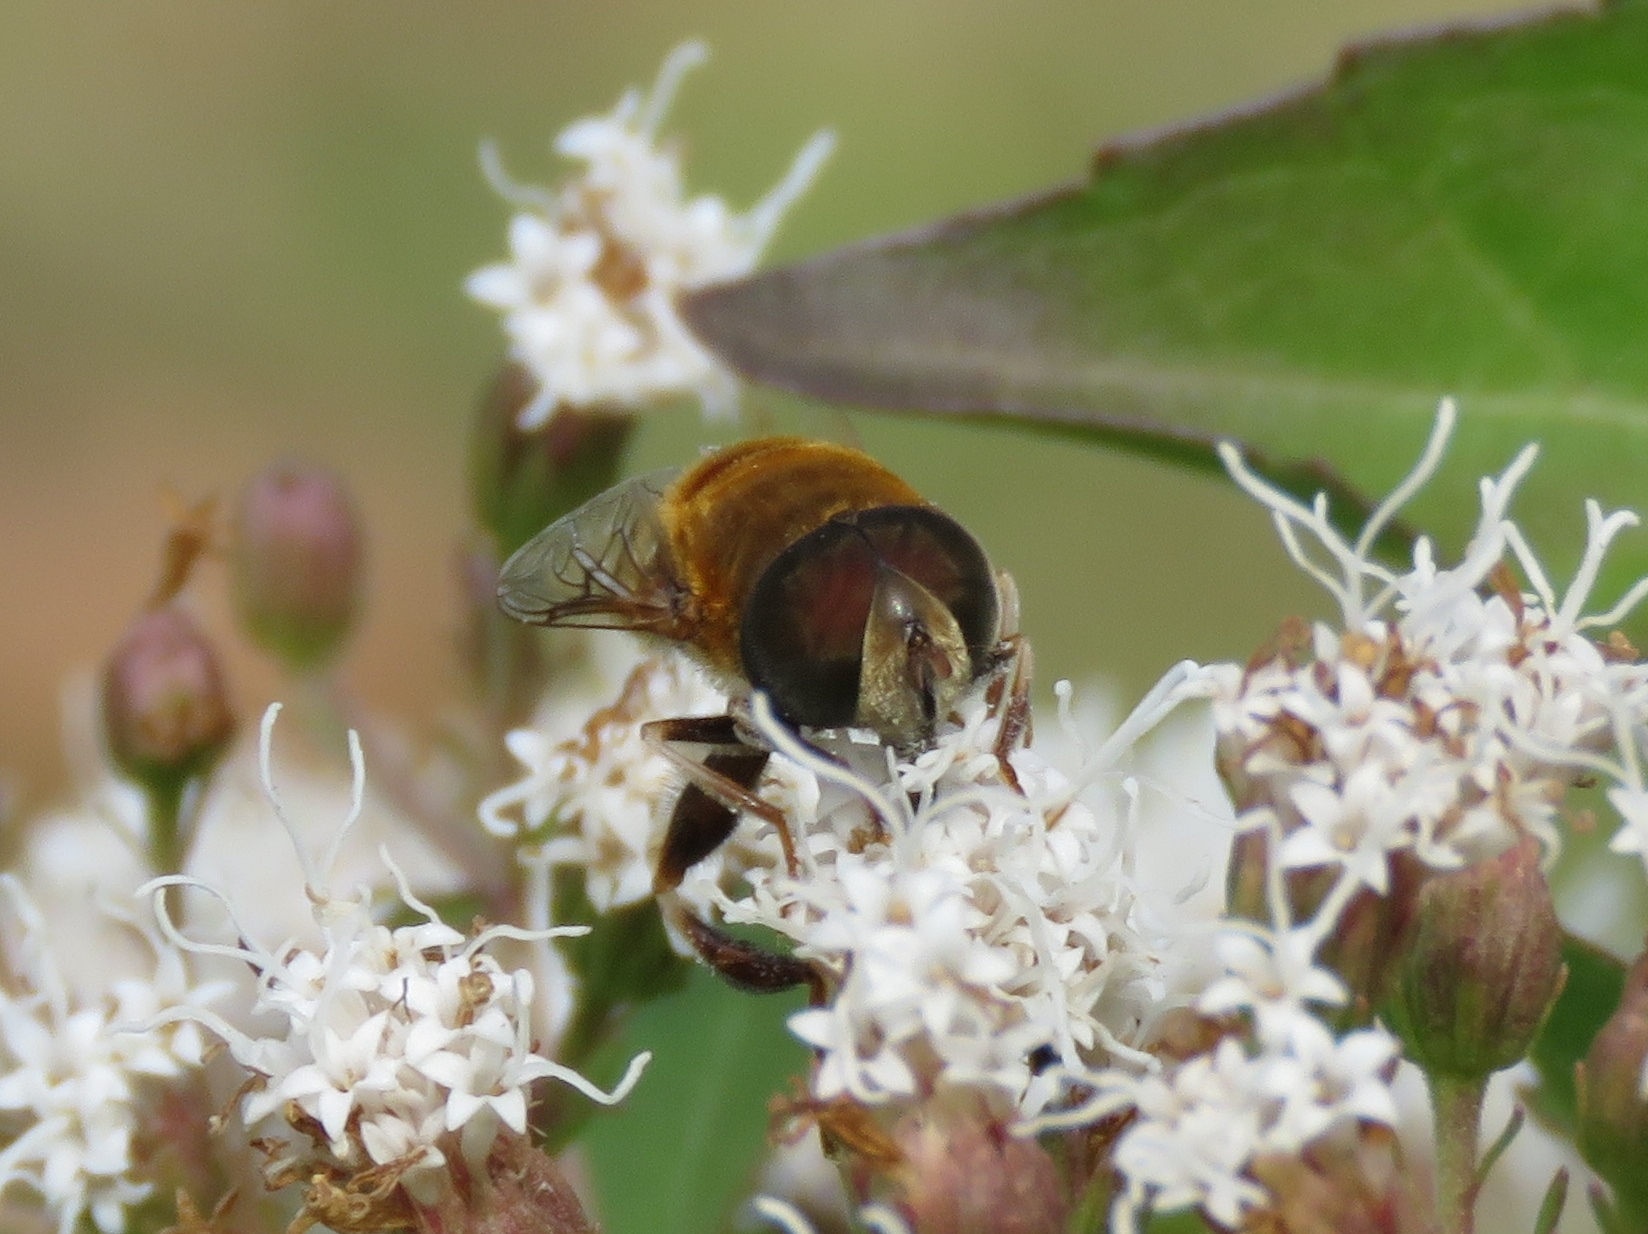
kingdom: Animalia
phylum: Arthropoda
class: Insecta
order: Diptera
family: Syrphidae
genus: Palpada
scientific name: Palpada mexicana
